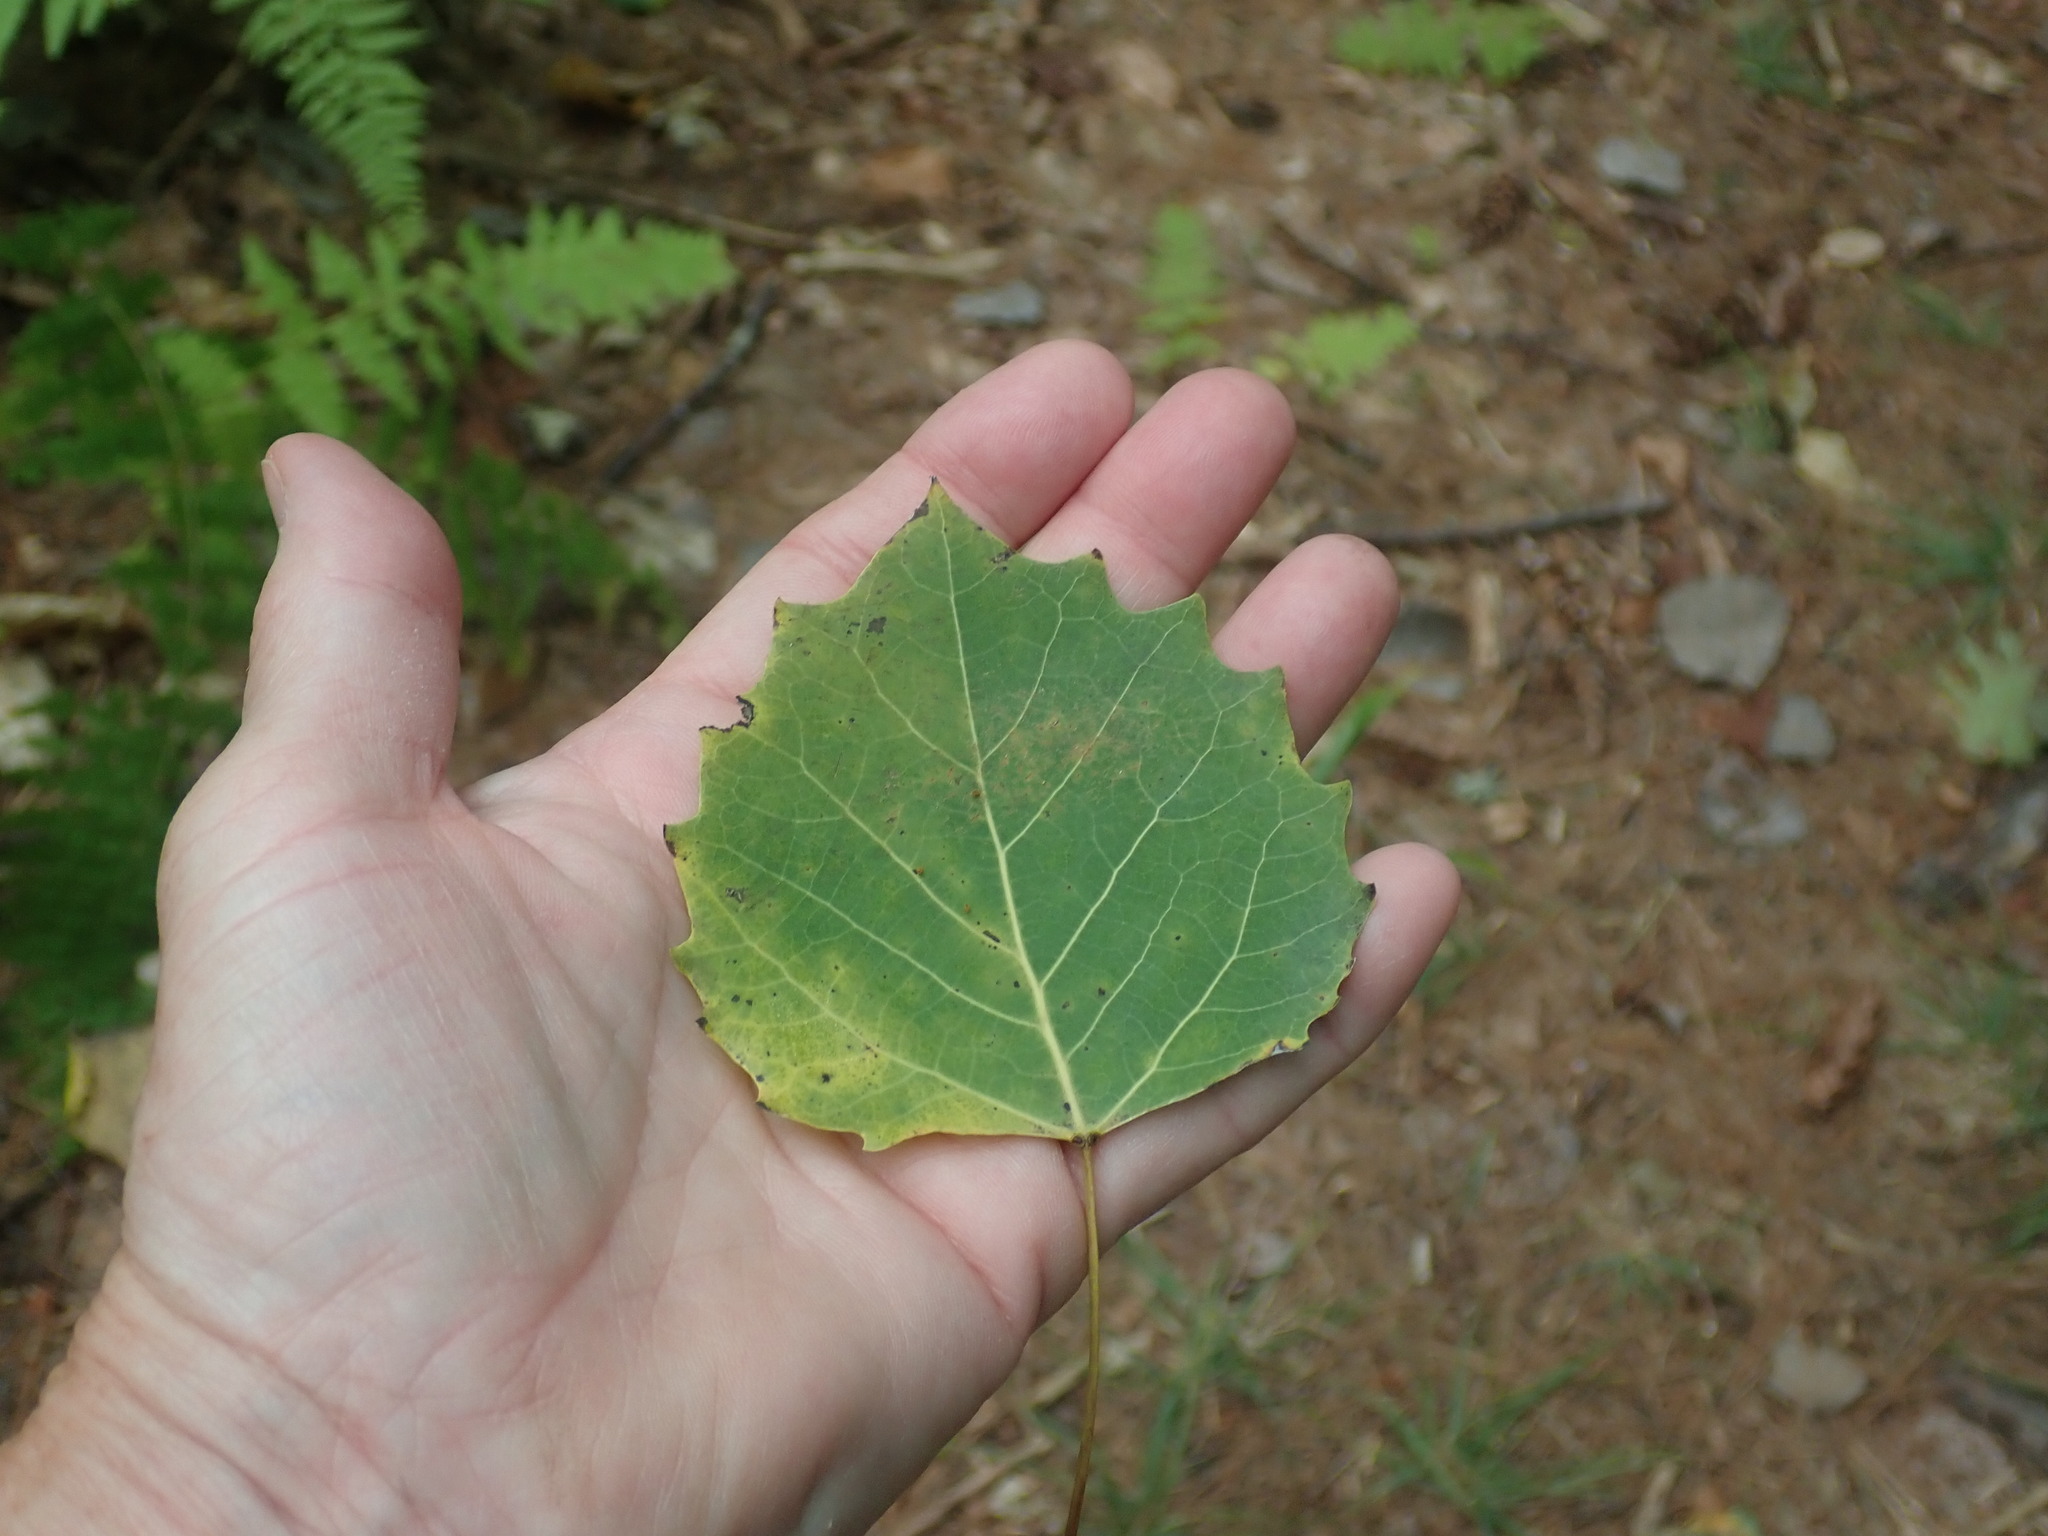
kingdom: Plantae
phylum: Tracheophyta
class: Magnoliopsida
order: Malpighiales
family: Salicaceae
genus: Populus
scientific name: Populus grandidentata
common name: Bigtooth aspen
